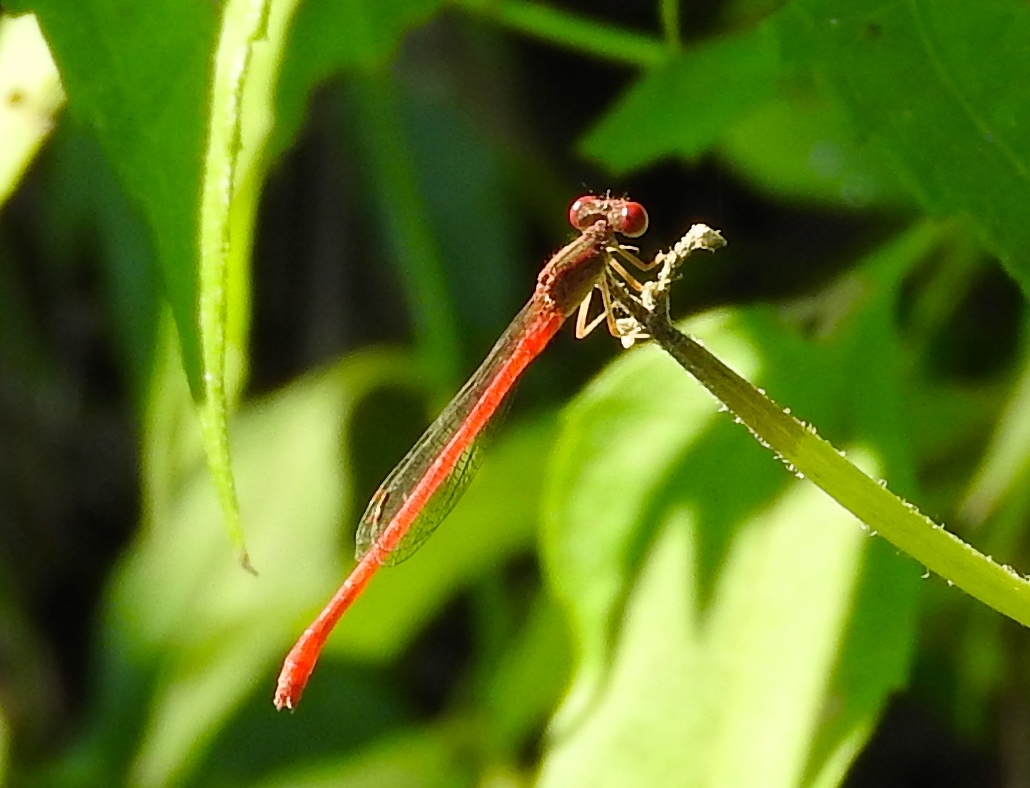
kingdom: Animalia
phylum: Arthropoda
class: Insecta
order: Odonata
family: Coenagrionidae
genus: Telebasis
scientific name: Telebasis
